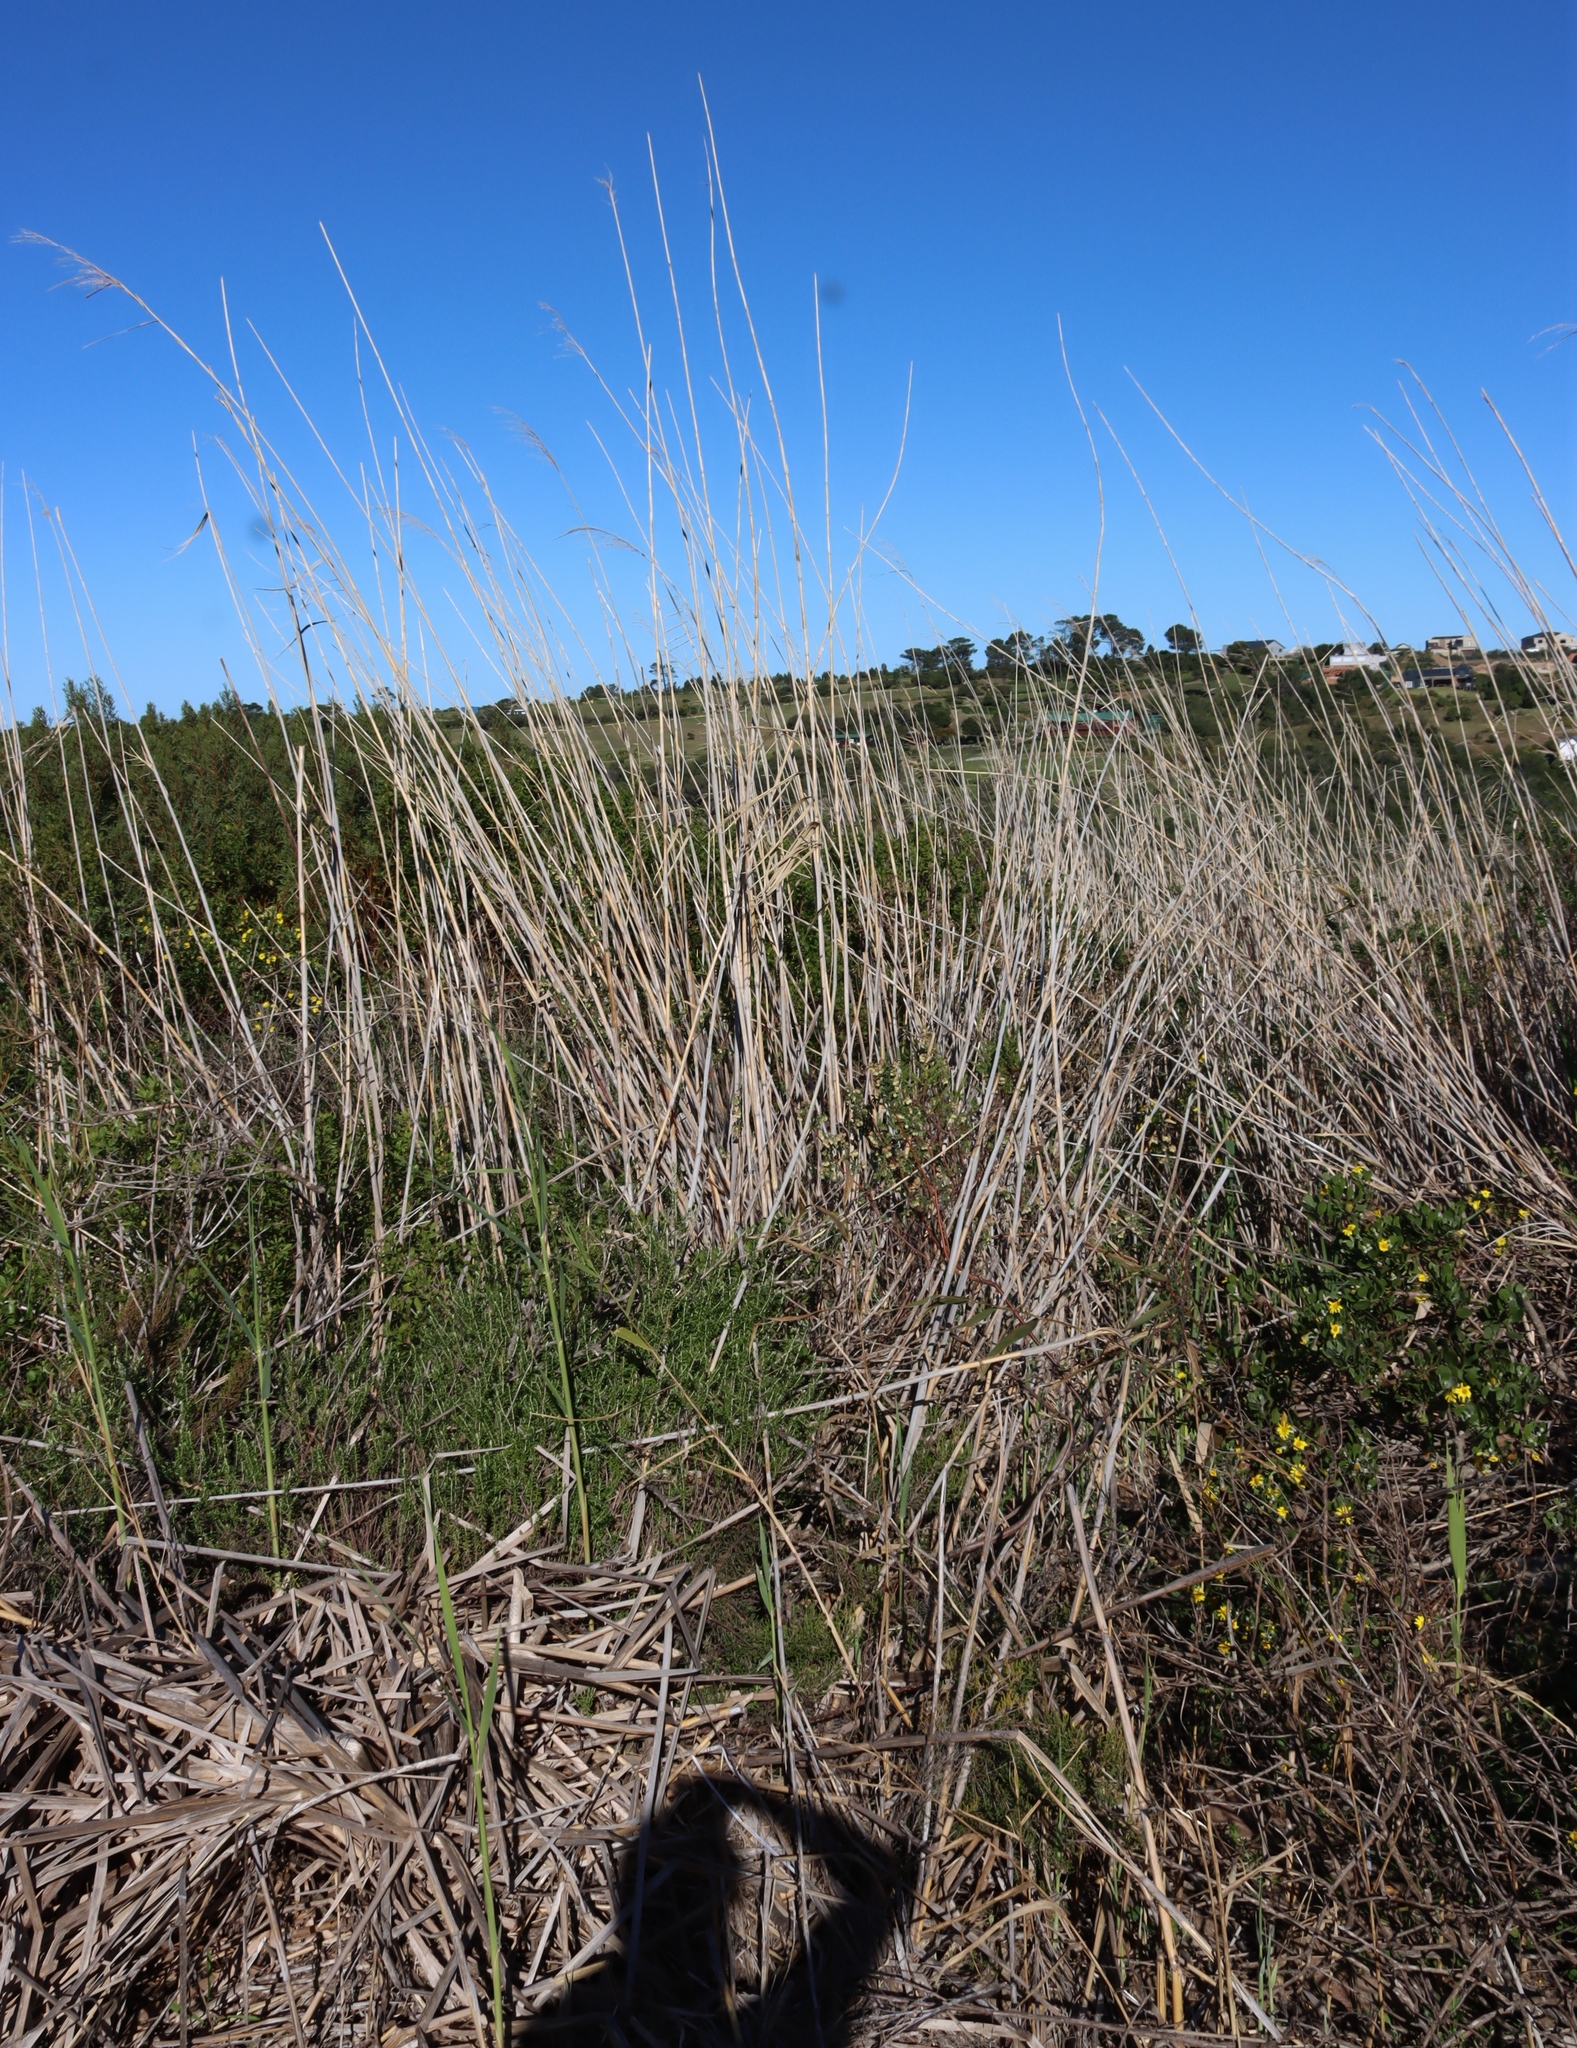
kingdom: Plantae
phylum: Tracheophyta
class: Liliopsida
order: Poales
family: Poaceae
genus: Phragmites
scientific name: Phragmites australis
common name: Common reed
